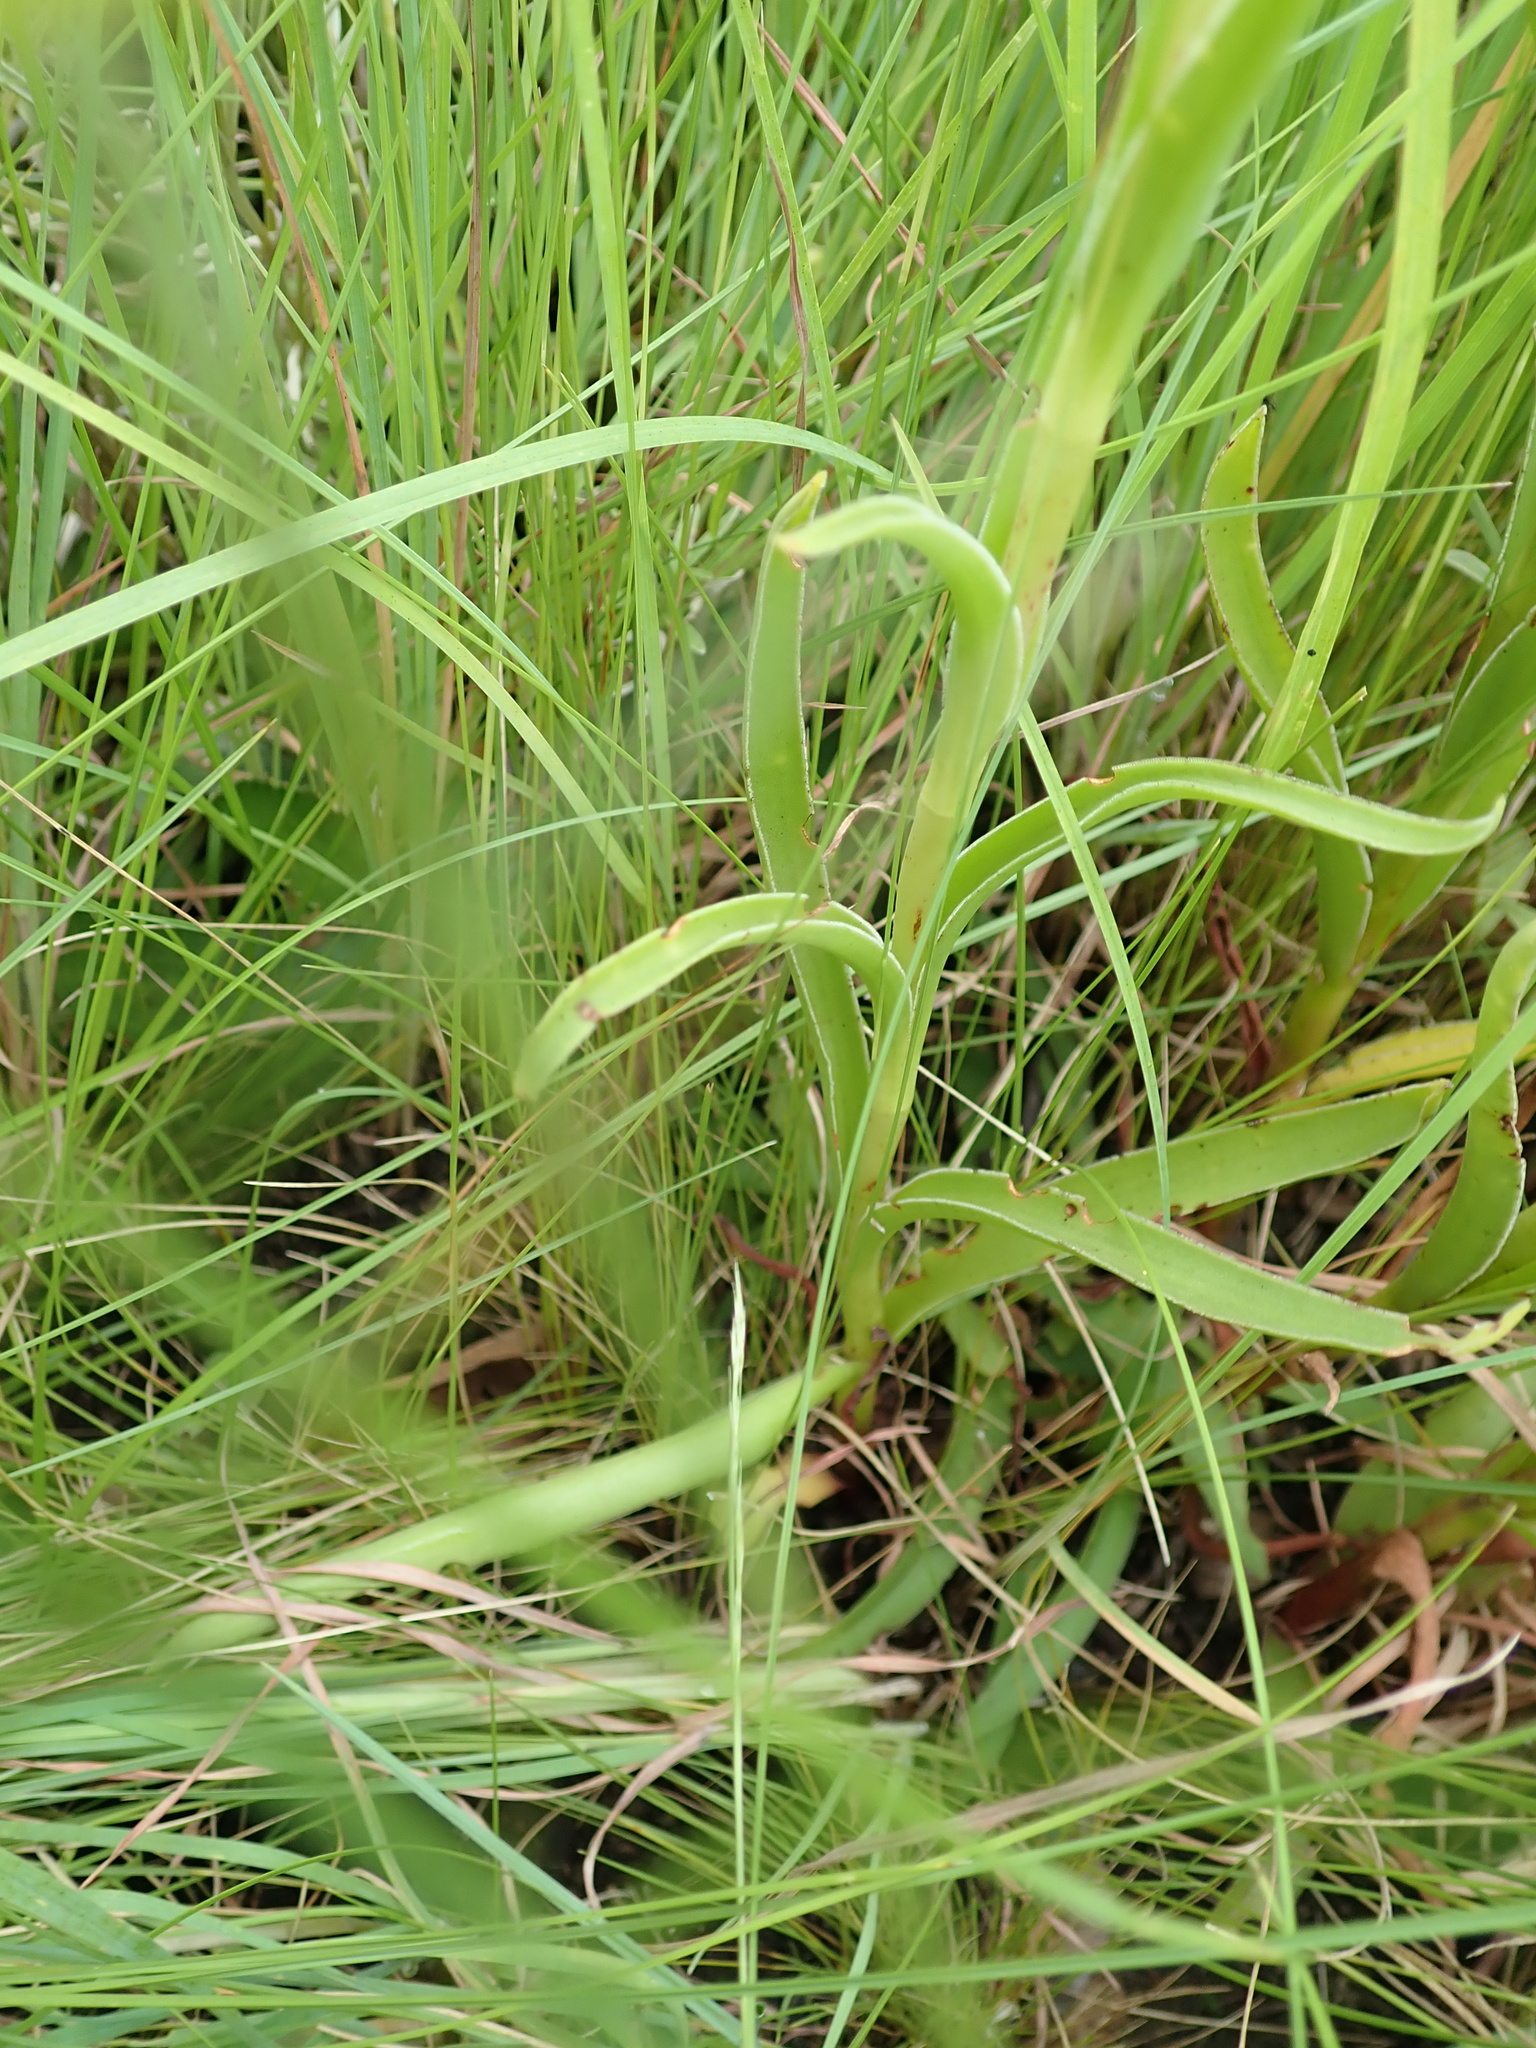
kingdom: Plantae
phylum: Tracheophyta
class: Magnoliopsida
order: Saxifragales
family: Crassulaceae
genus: Crassula
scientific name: Crassula vaginata
